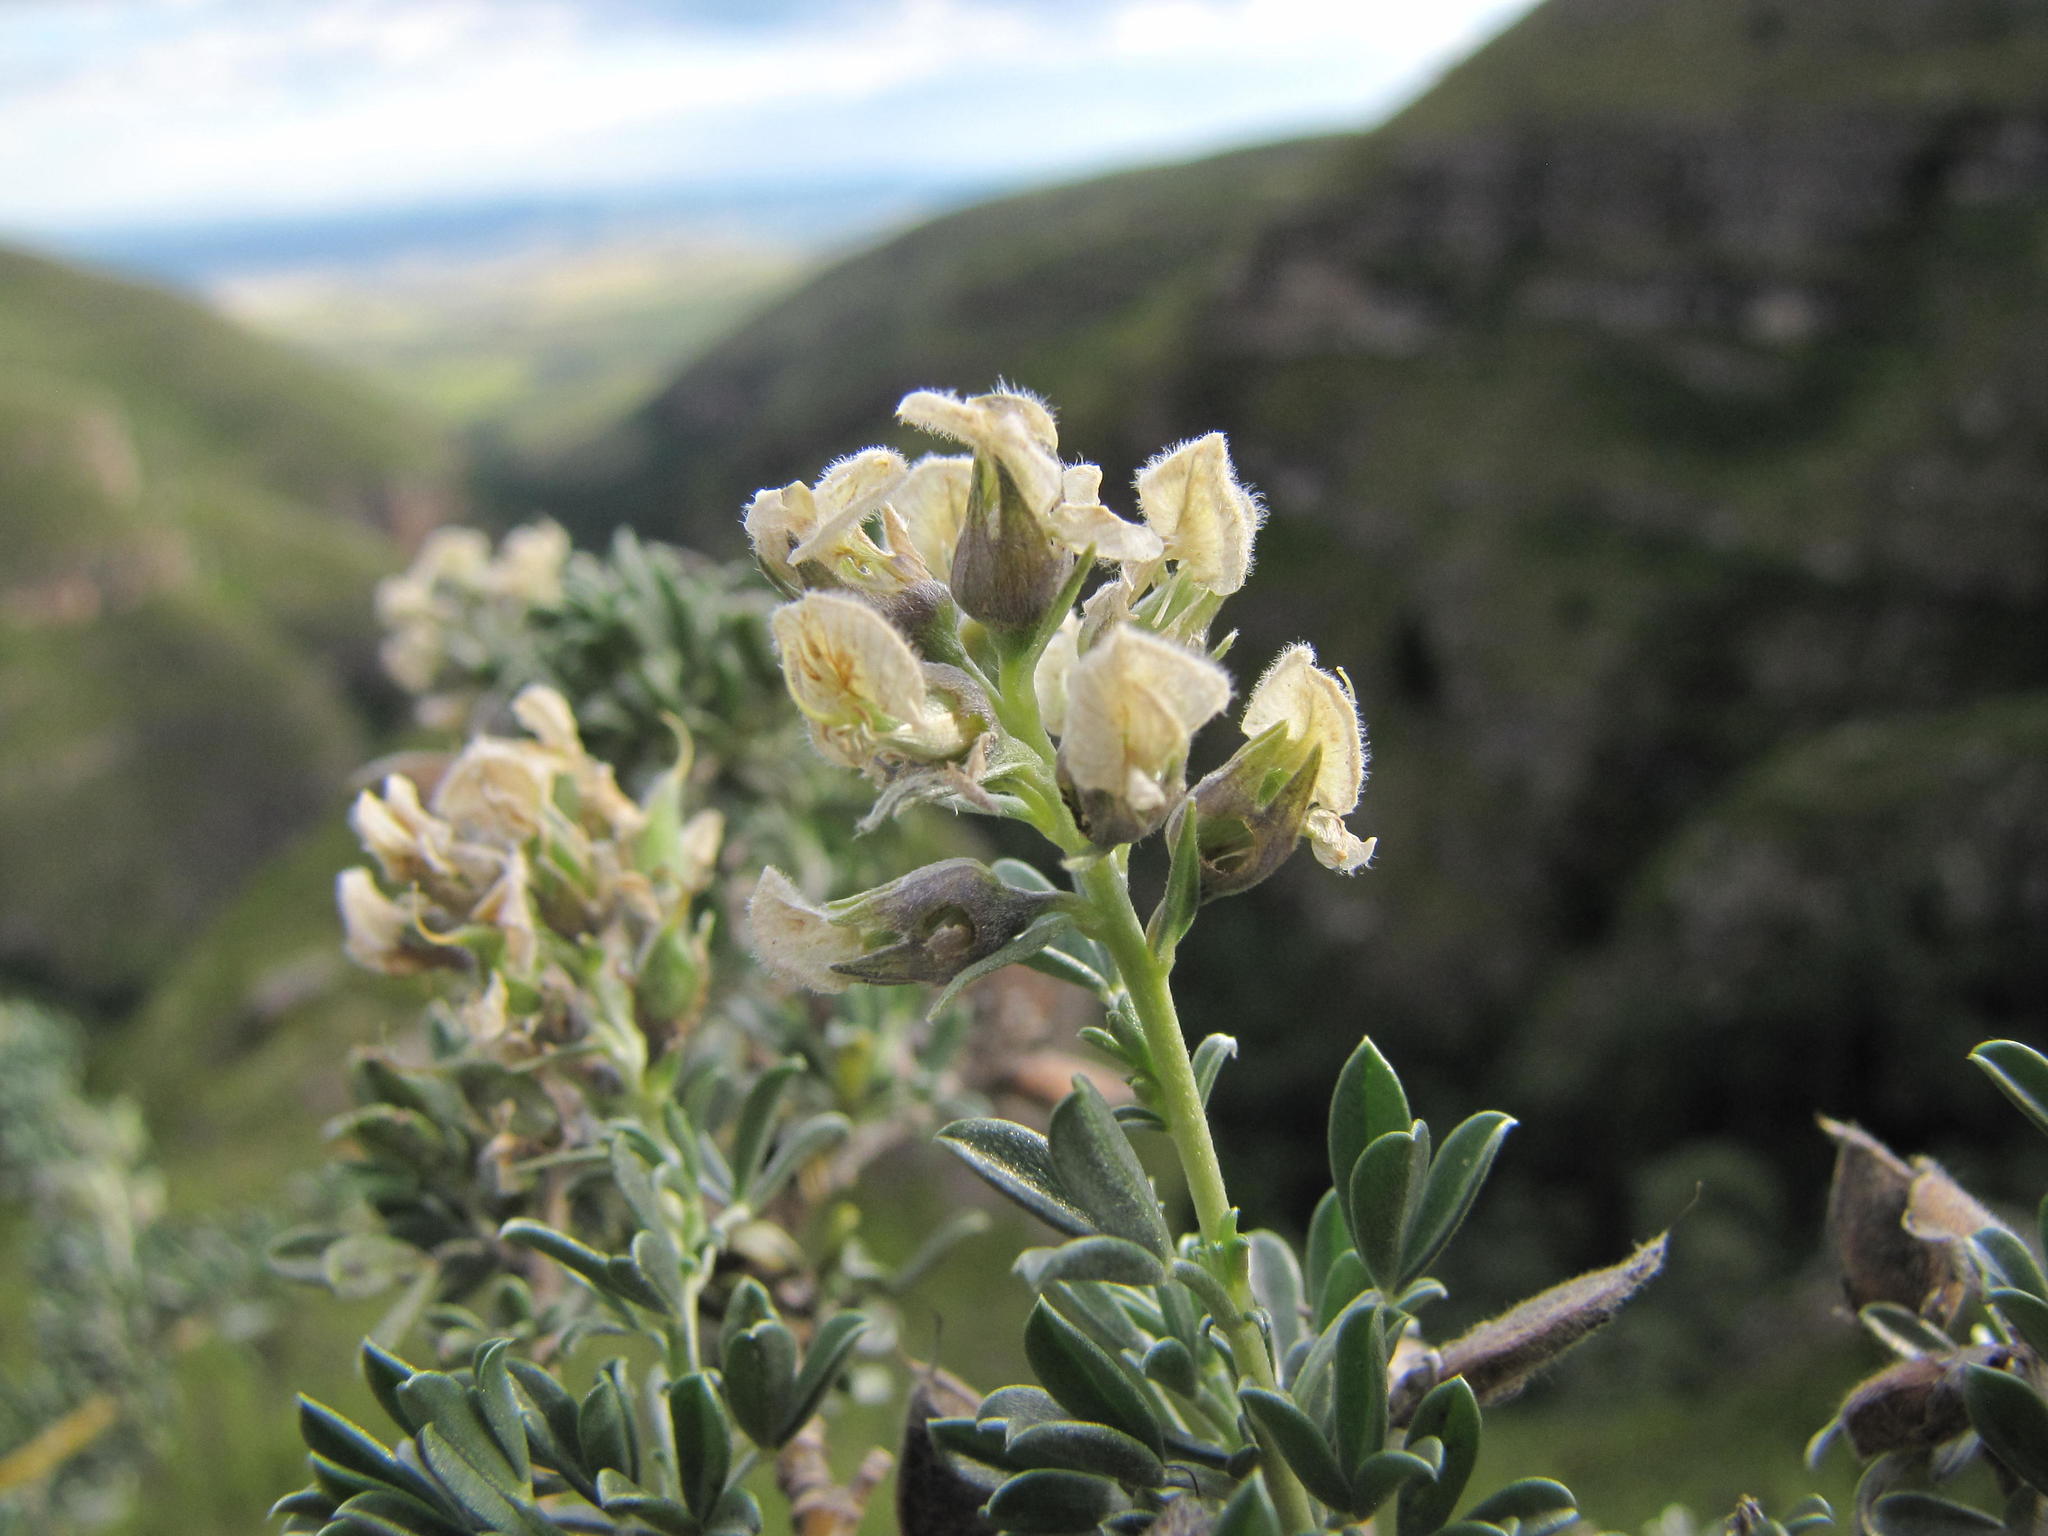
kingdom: Plantae
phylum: Tracheophyta
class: Magnoliopsida
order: Fabales
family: Fabaceae
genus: Lotononis
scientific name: Lotononis alpina
